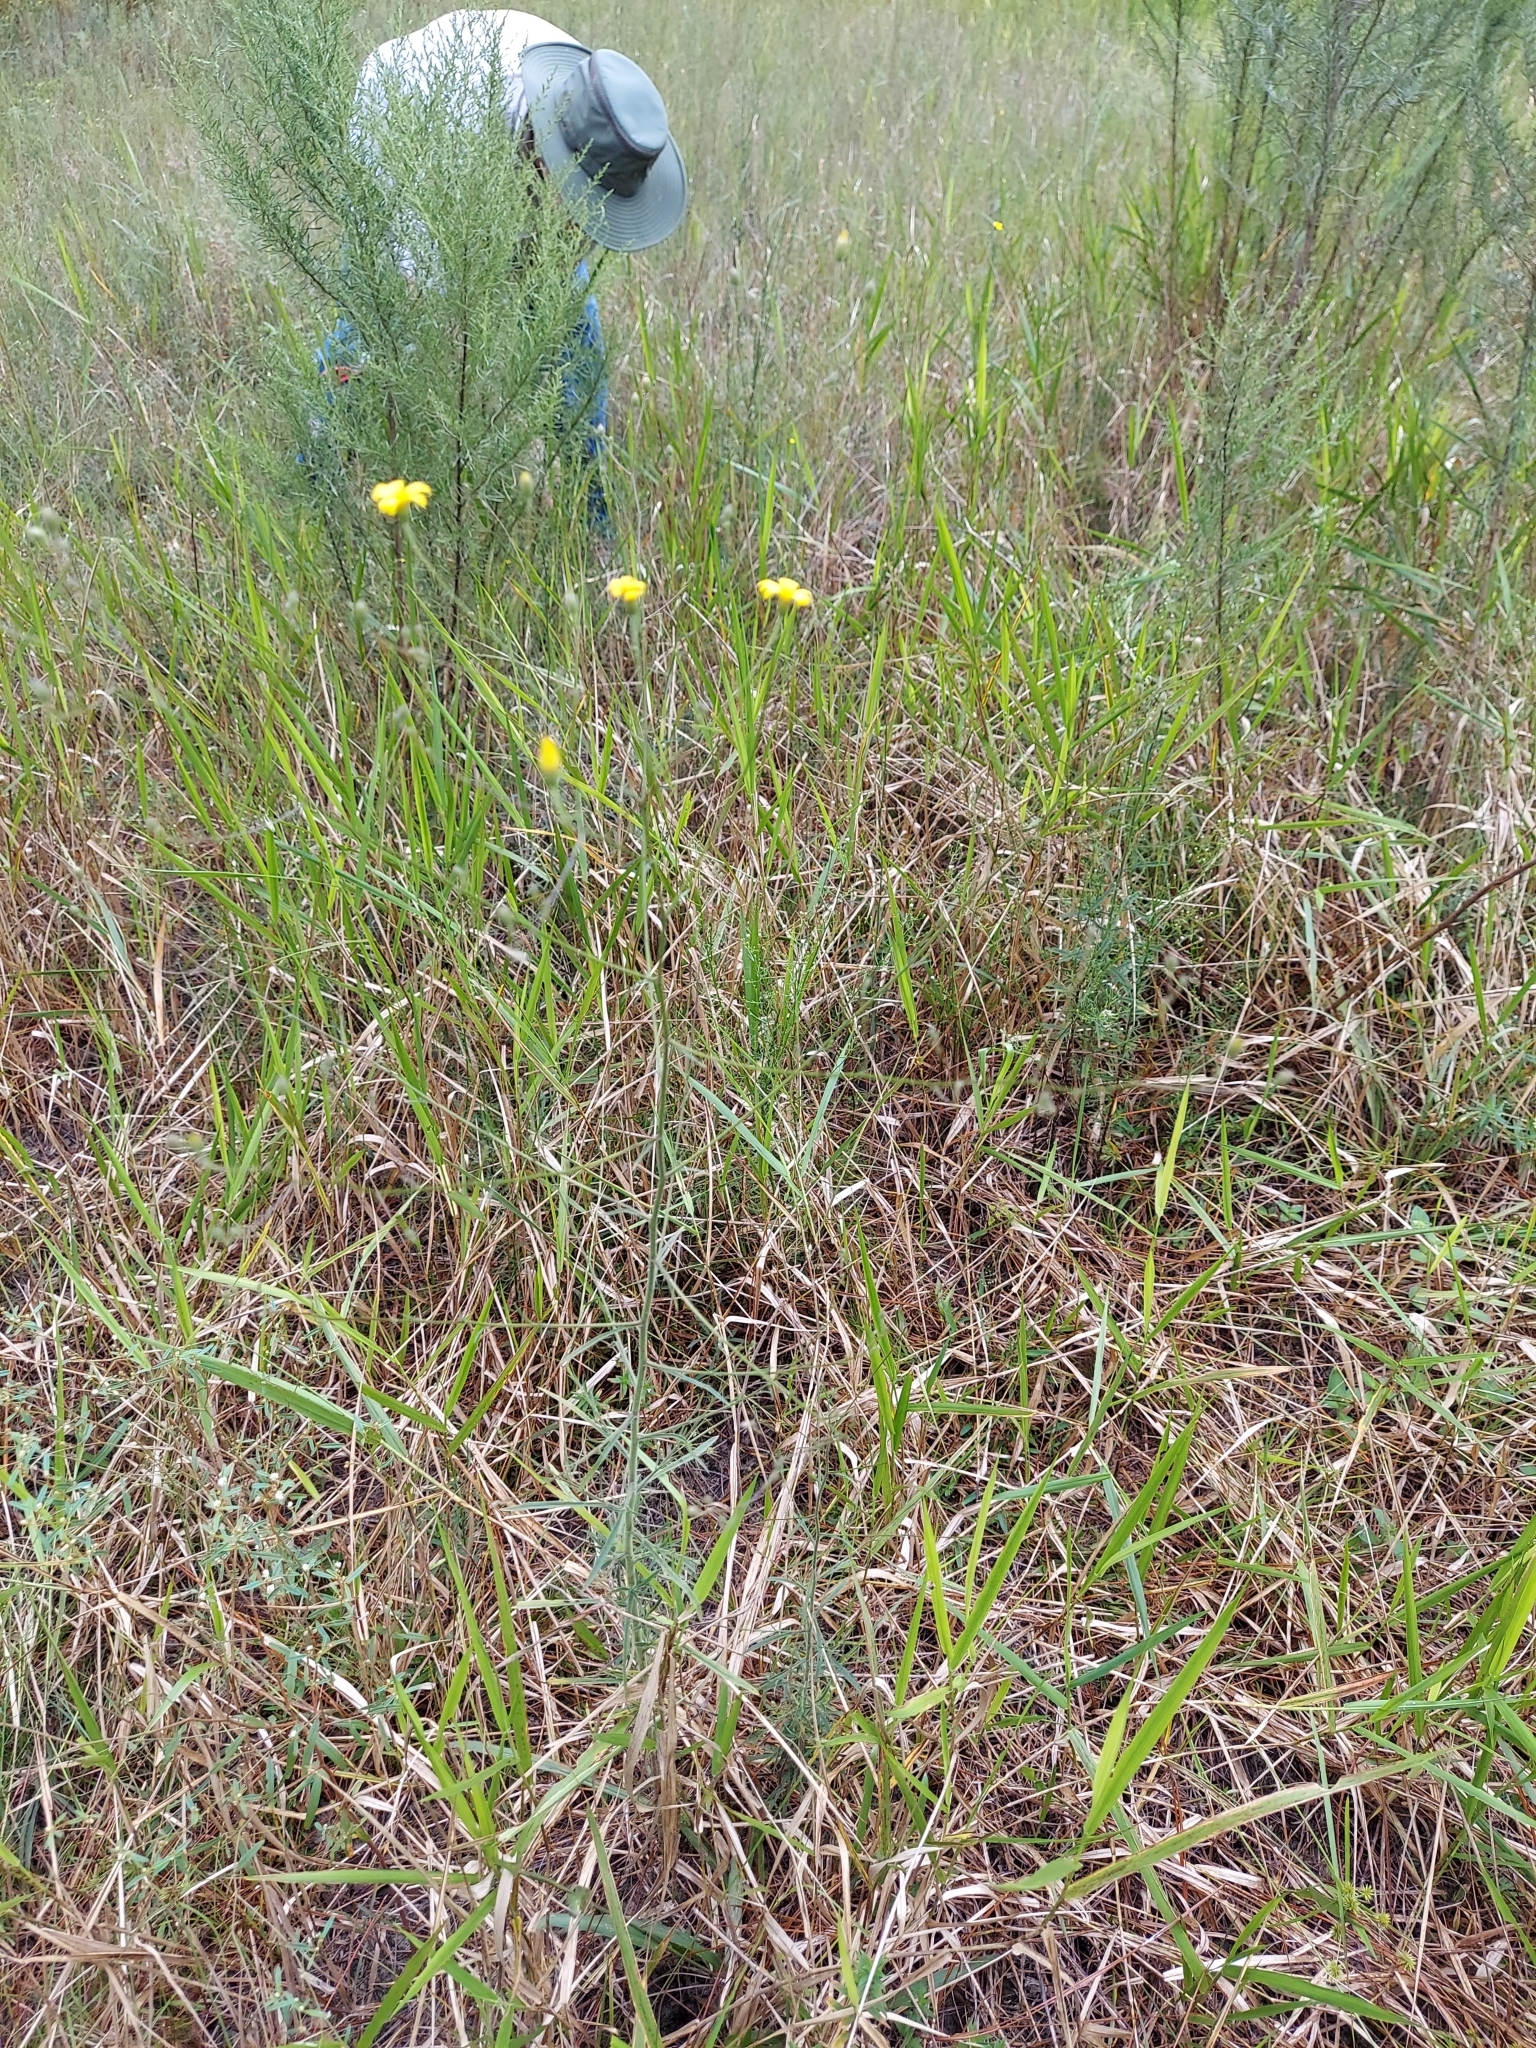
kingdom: Plantae
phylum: Tracheophyta
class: Magnoliopsida
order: Asterales
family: Asteraceae
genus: Croptilon
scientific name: Croptilon divaricatum
